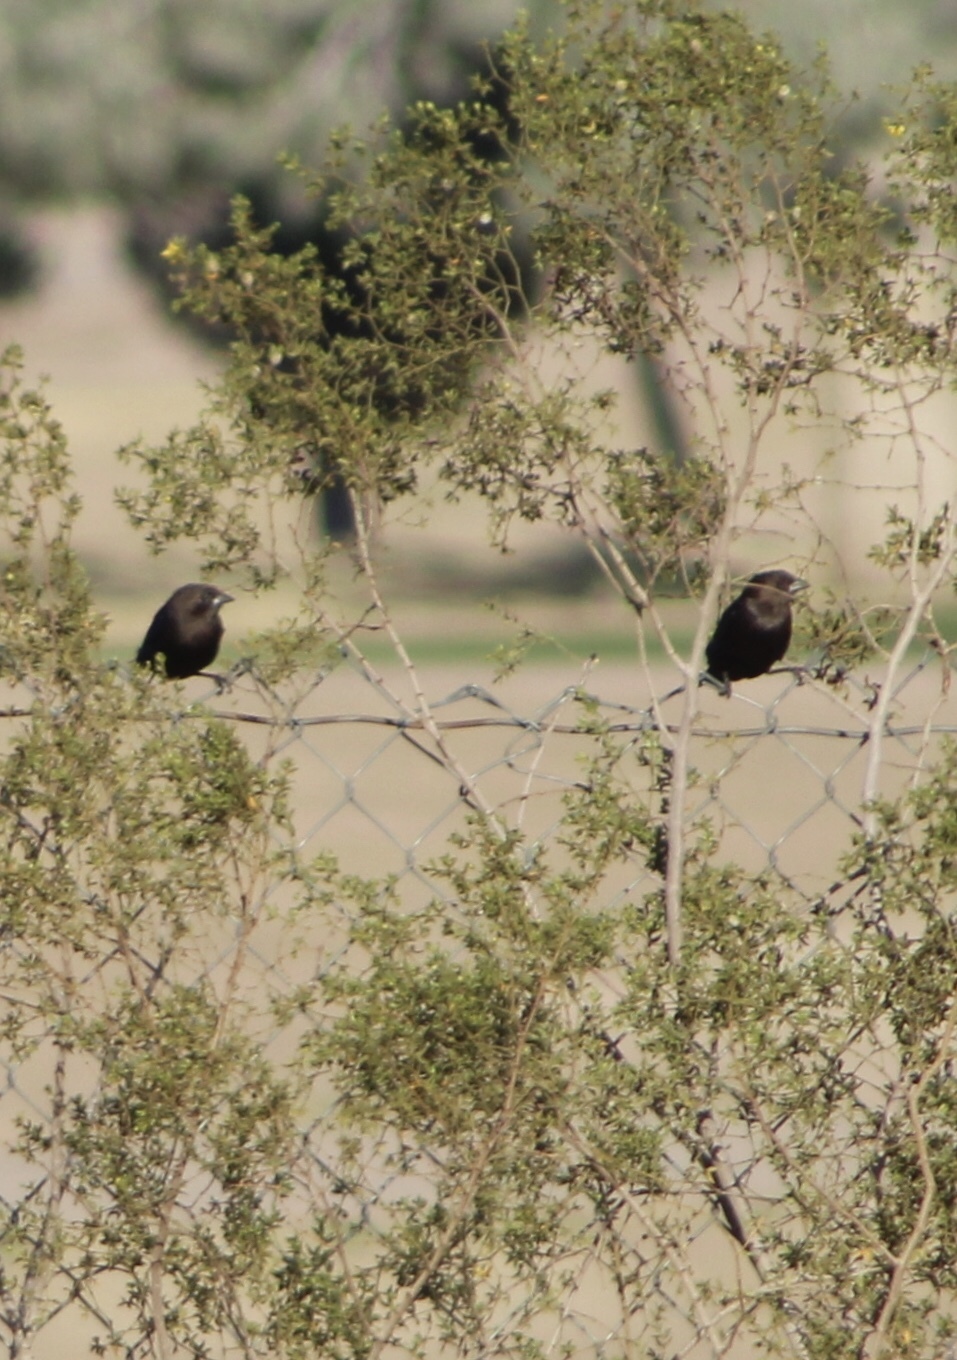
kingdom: Animalia
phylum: Chordata
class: Aves
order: Passeriformes
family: Icteridae
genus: Molothrus
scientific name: Molothrus ater
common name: Brown-headed cowbird
